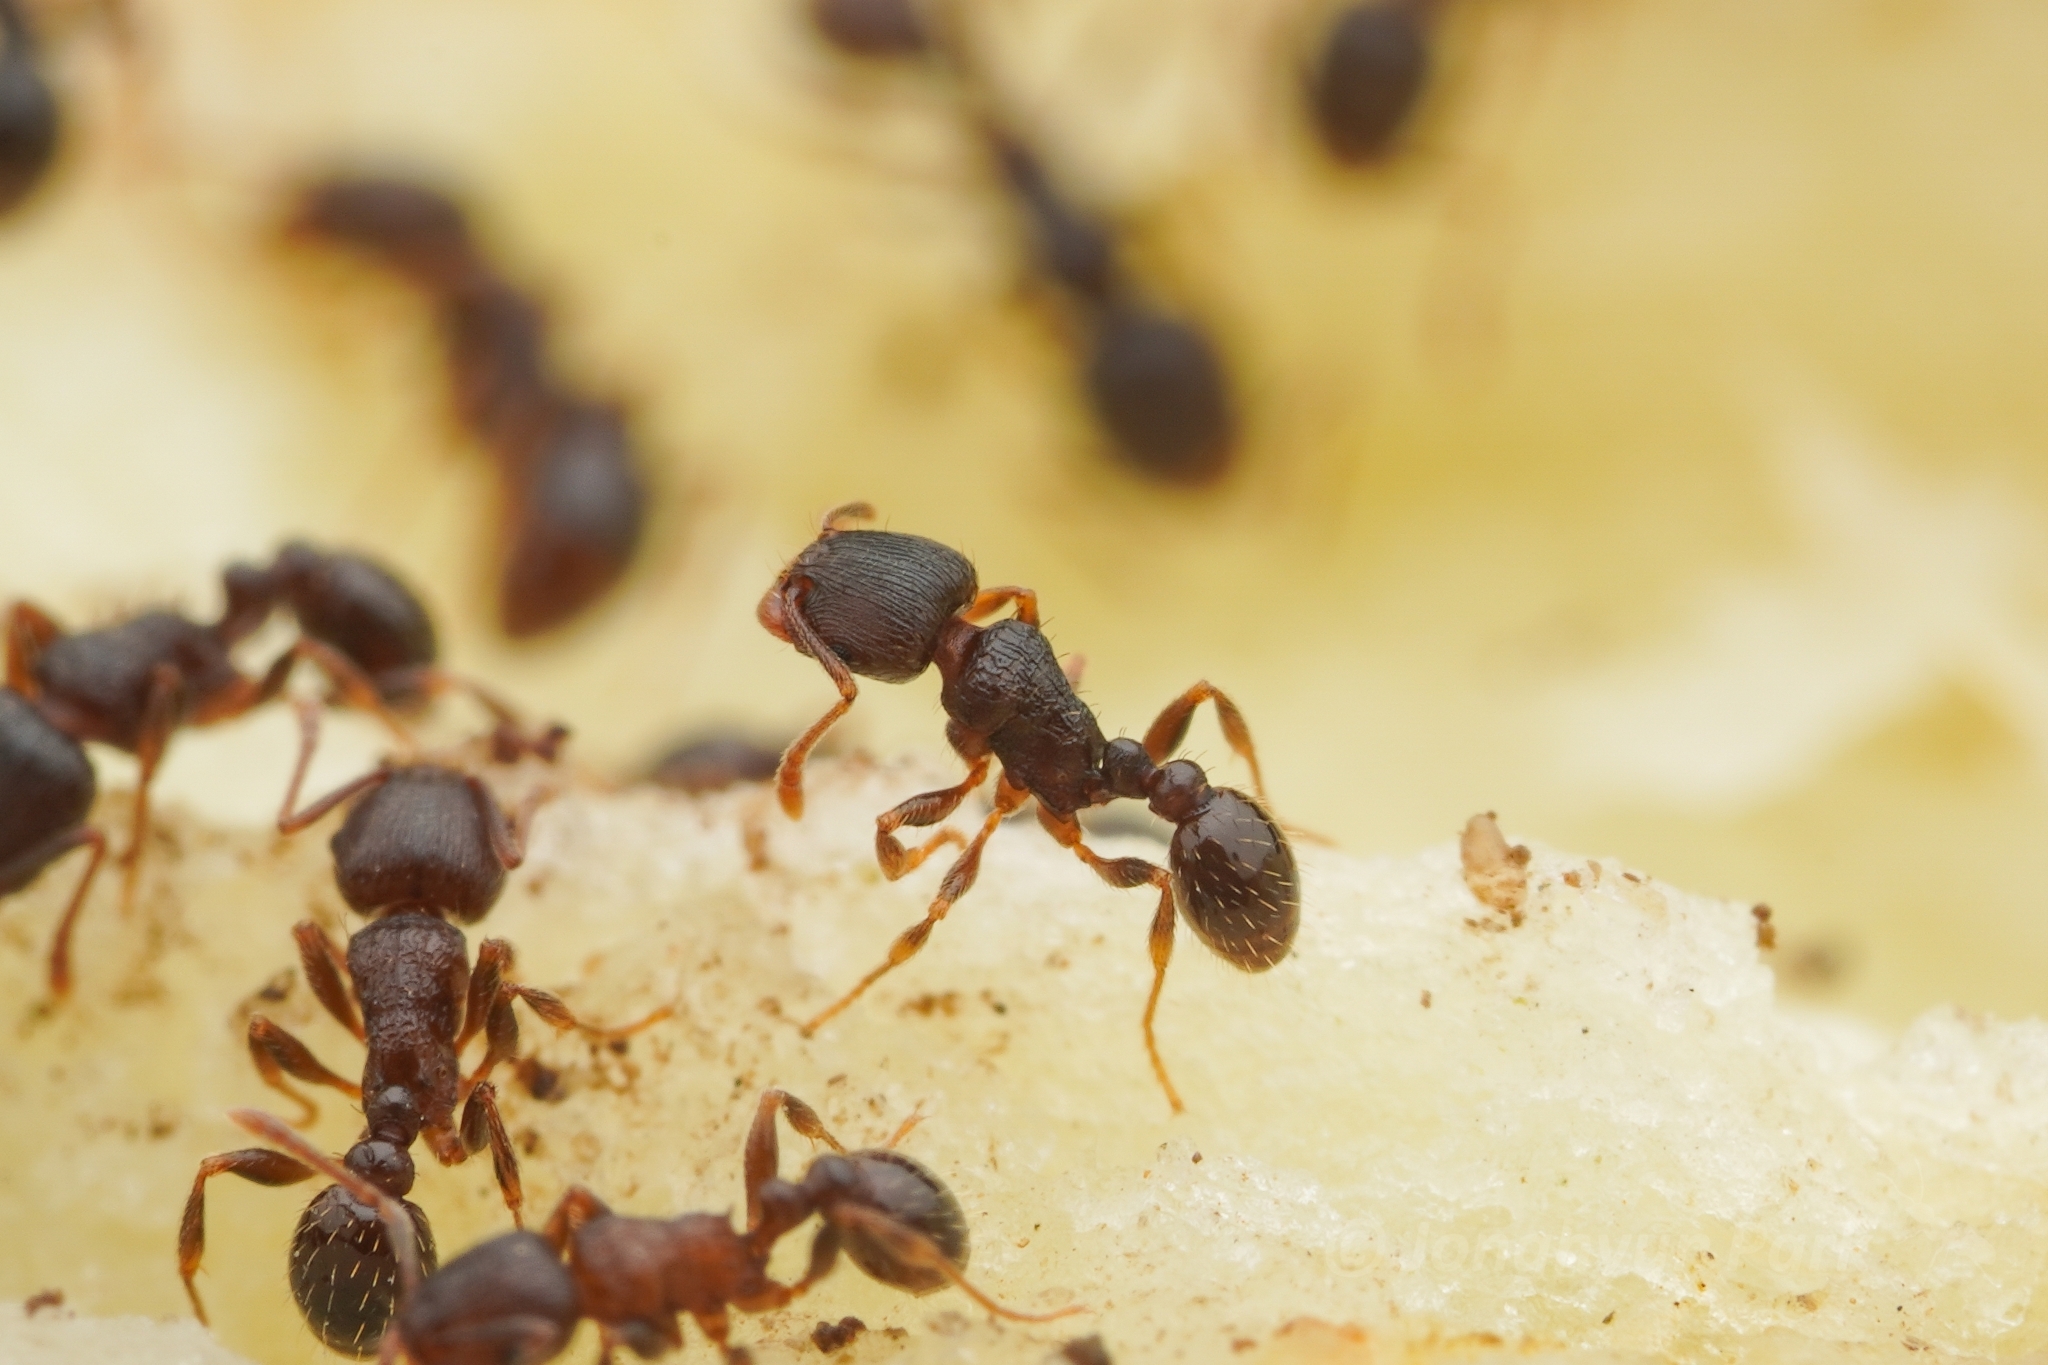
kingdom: Animalia
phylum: Arthropoda
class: Insecta
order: Hymenoptera
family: Formicidae
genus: Tetramorium
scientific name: Tetramorium tsushimae
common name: Ant
